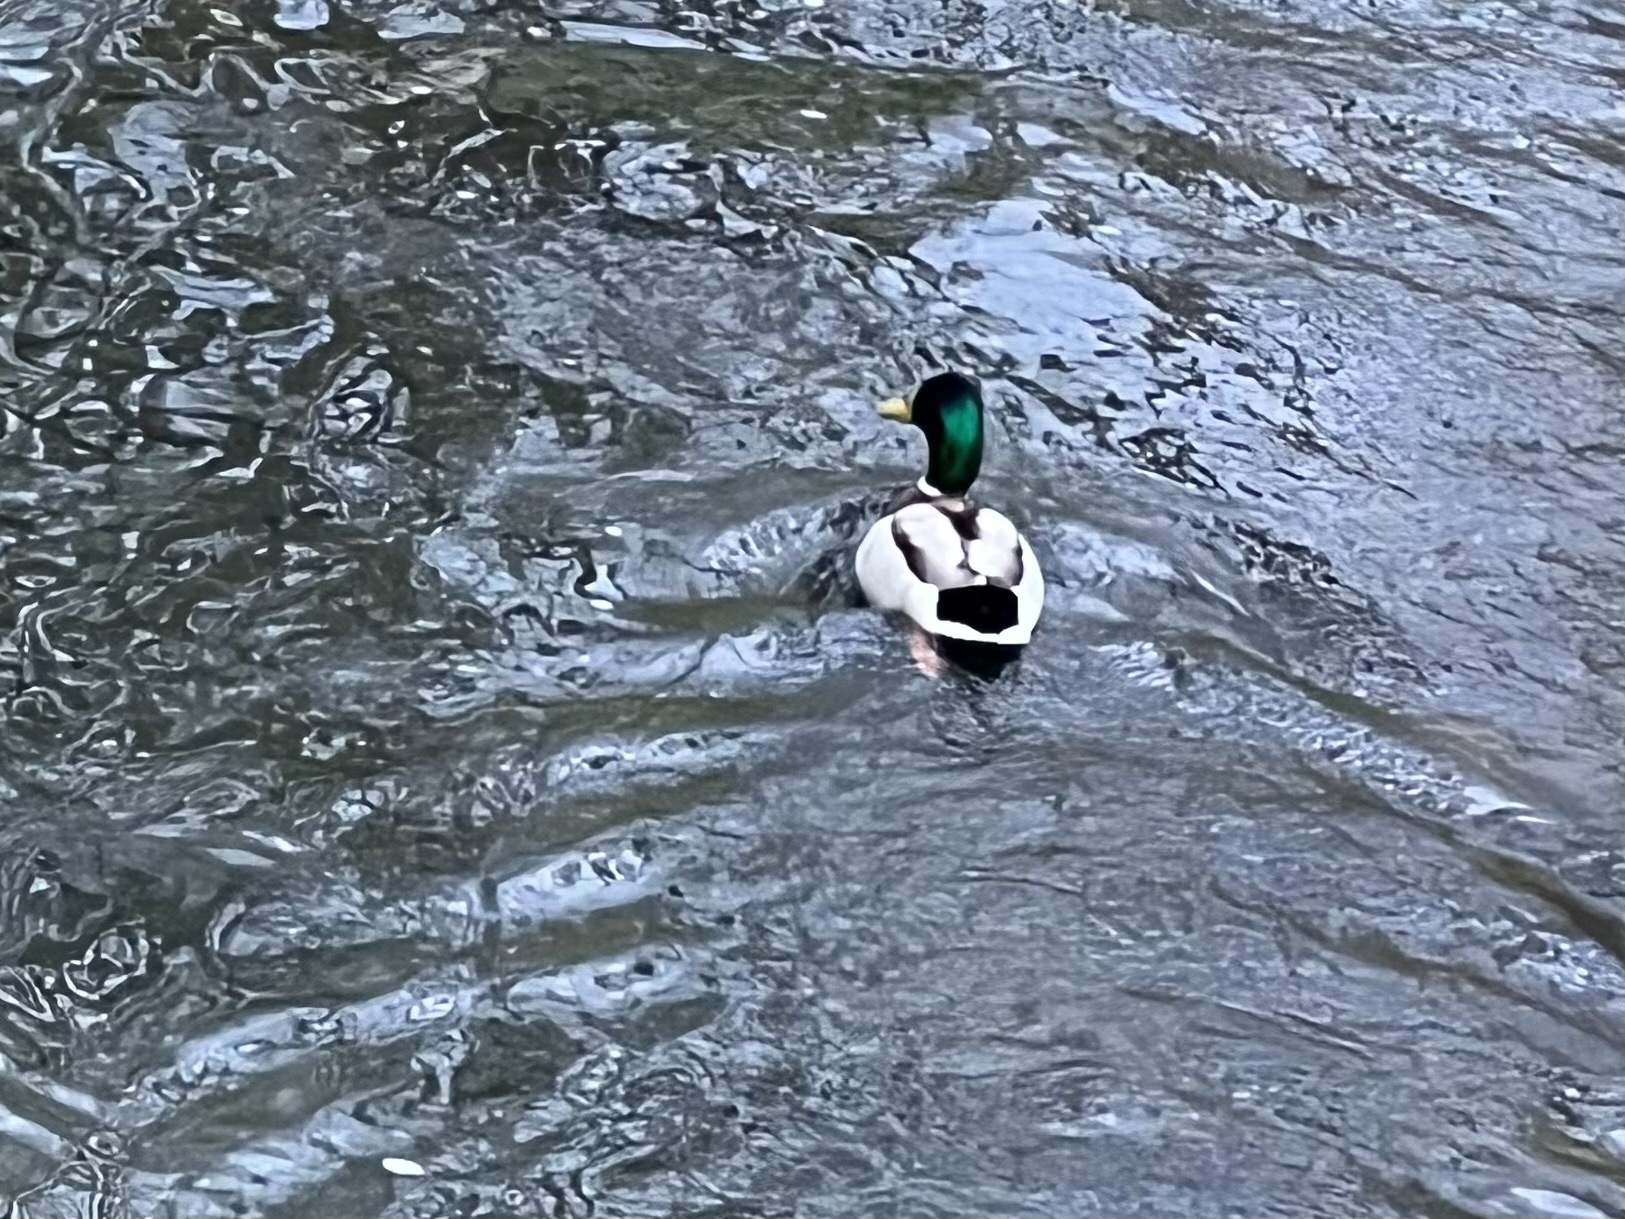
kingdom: Animalia
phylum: Chordata
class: Aves
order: Anseriformes
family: Anatidae
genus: Anas
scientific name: Anas platyrhynchos
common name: Mallard
